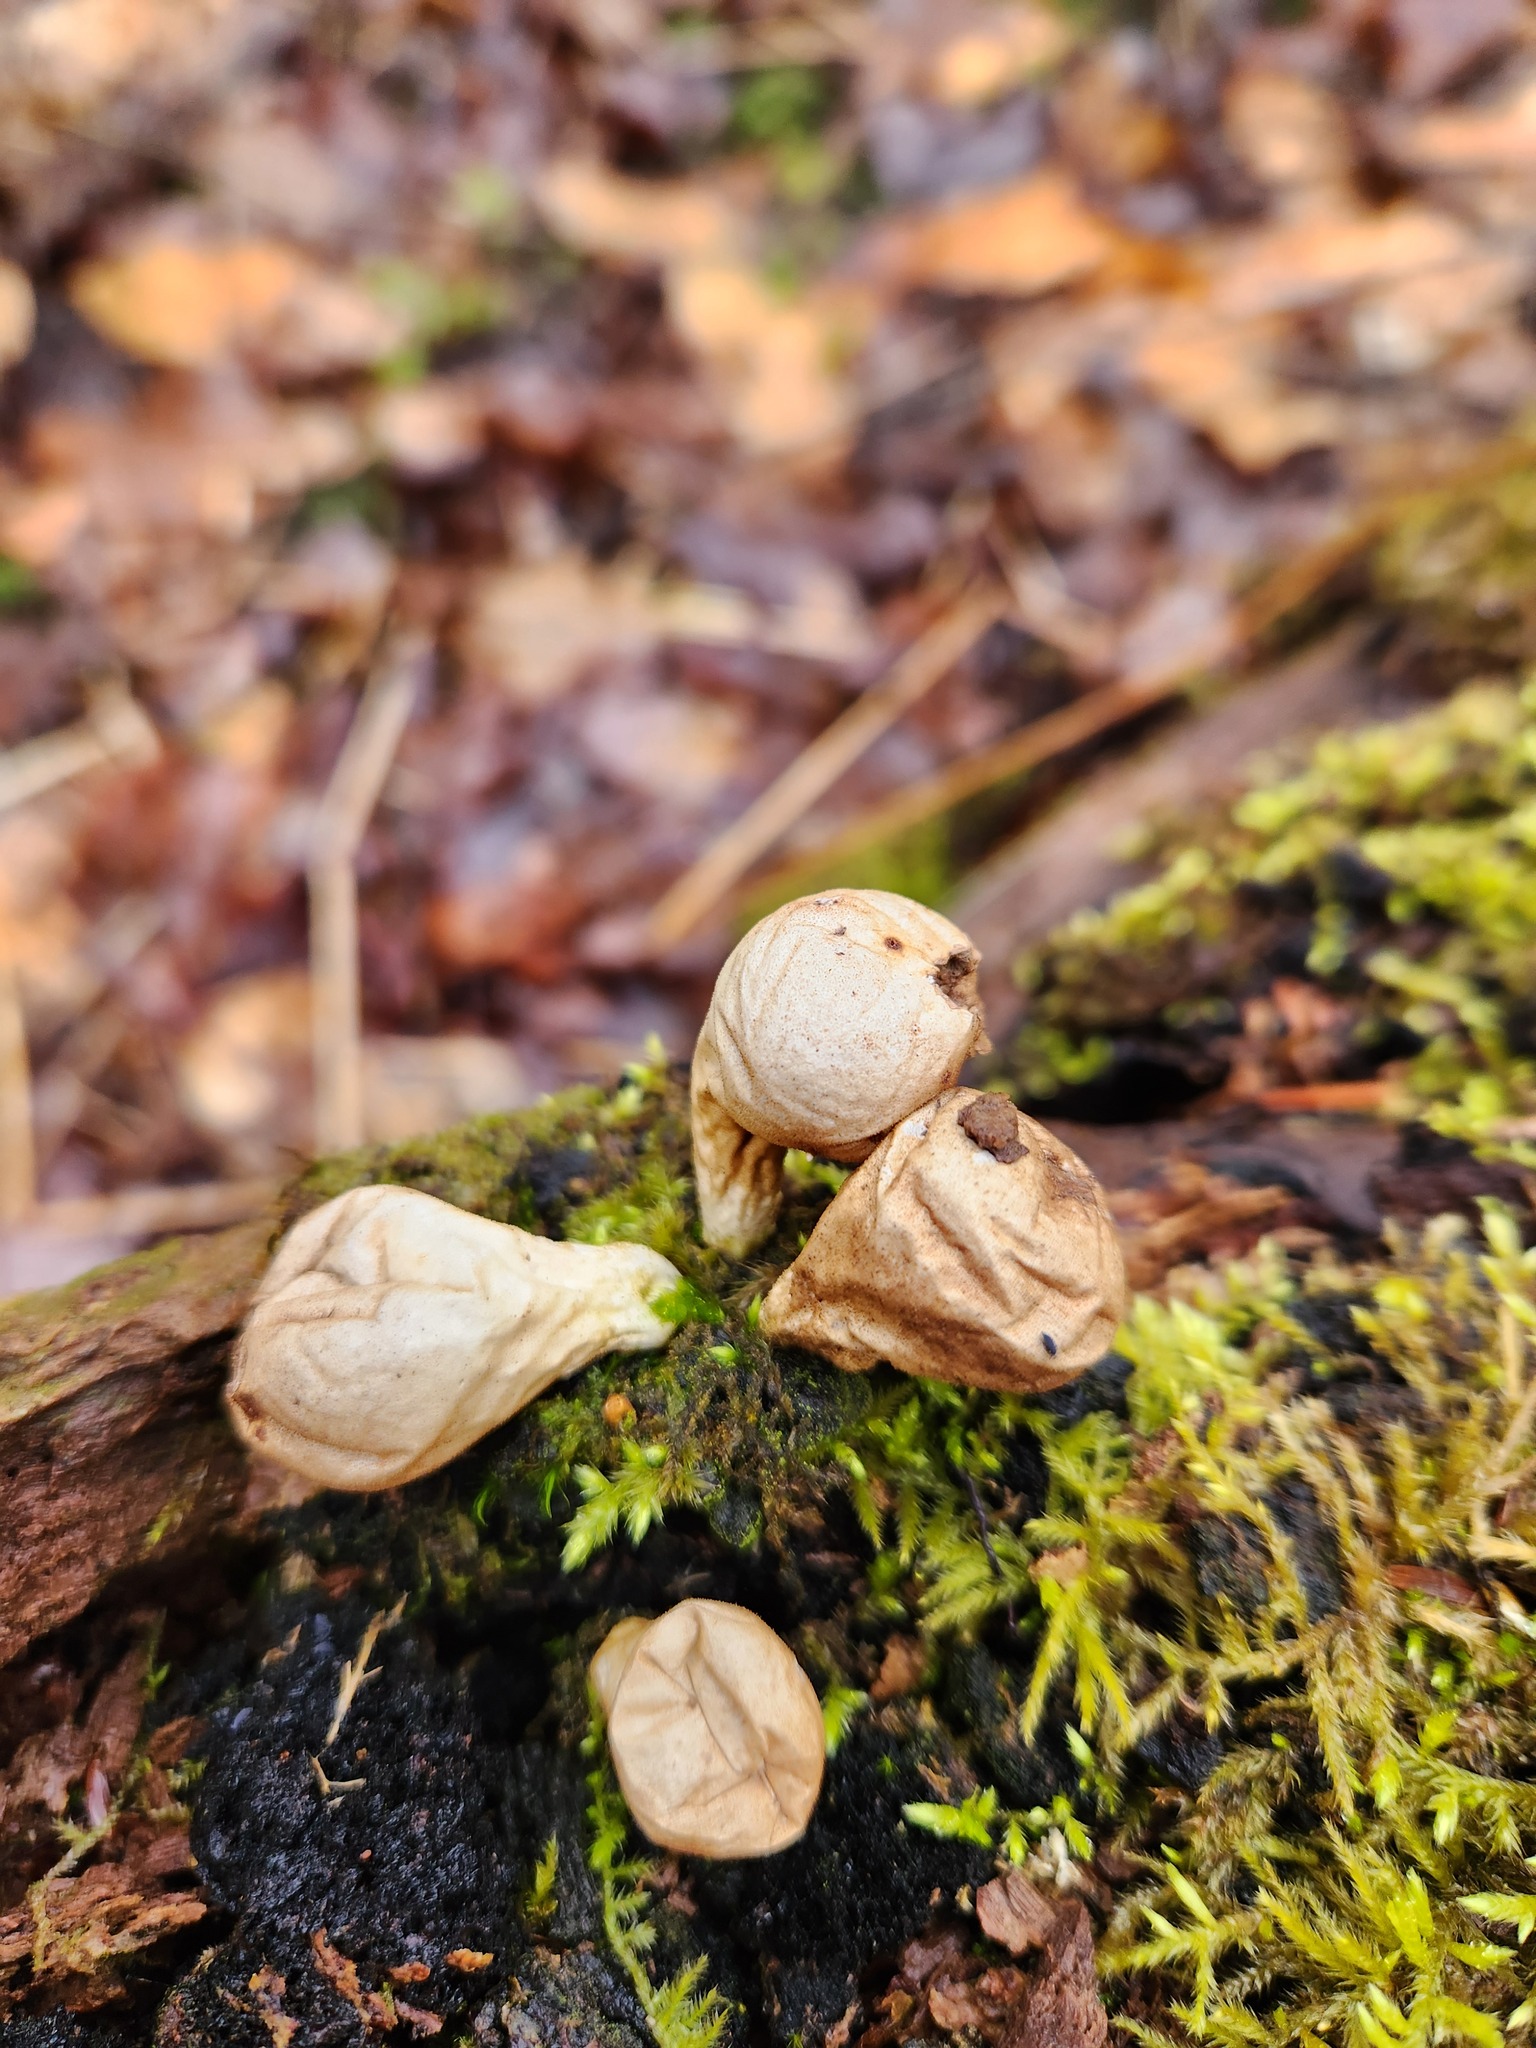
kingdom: Fungi
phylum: Basidiomycota
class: Agaricomycetes
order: Agaricales
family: Lycoperdaceae
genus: Apioperdon
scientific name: Apioperdon pyriforme
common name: Pear-shaped puffball
